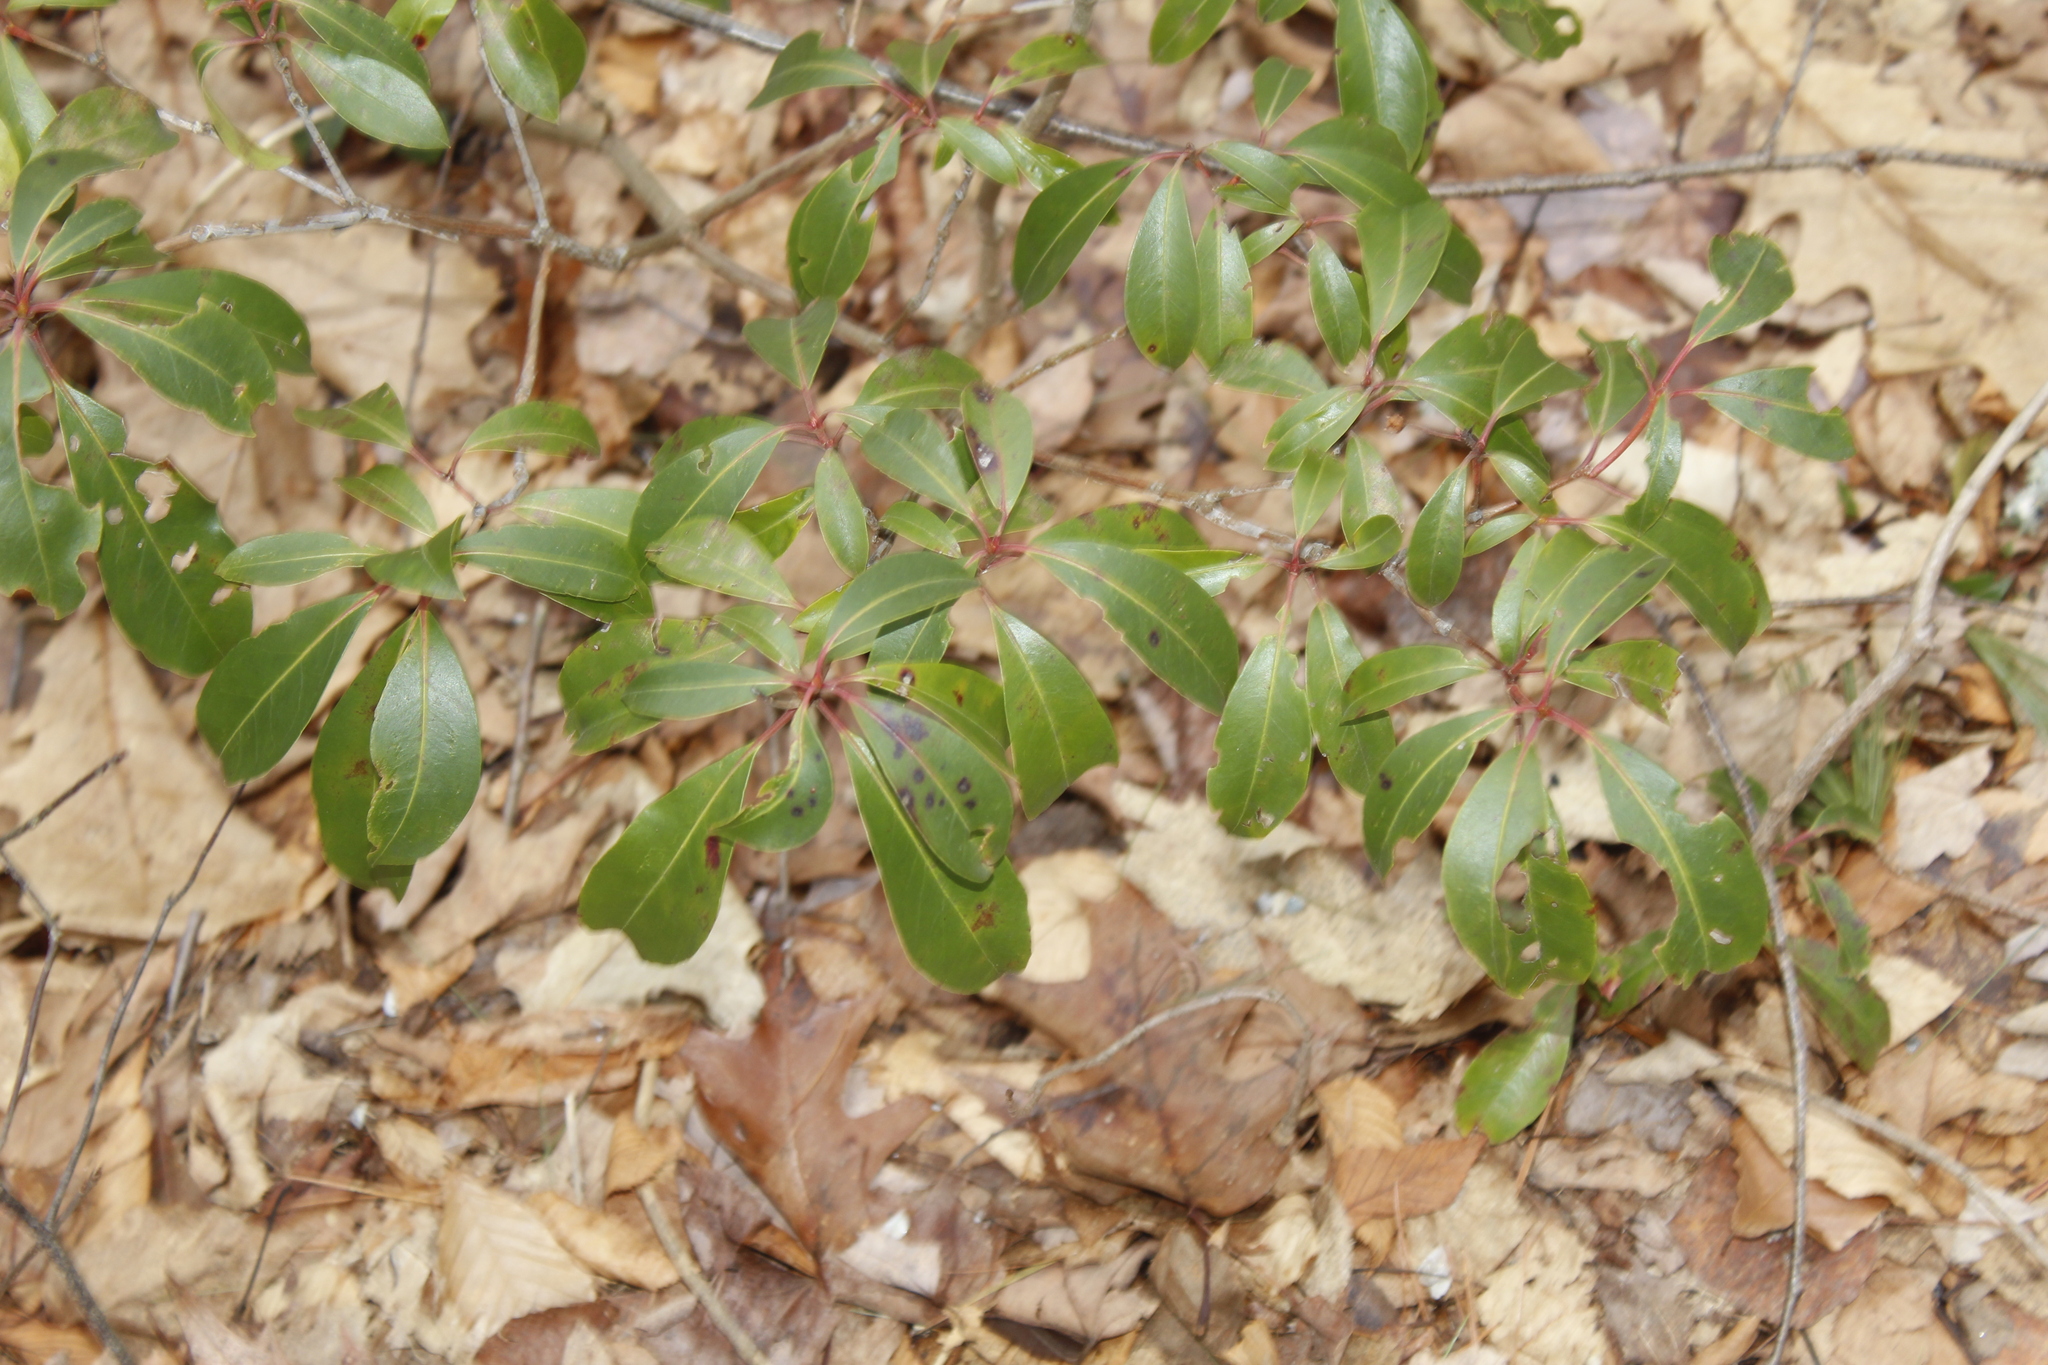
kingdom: Plantae
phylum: Tracheophyta
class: Magnoliopsida
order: Ericales
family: Ericaceae
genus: Kalmia
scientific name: Kalmia latifolia
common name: Mountain-laurel
